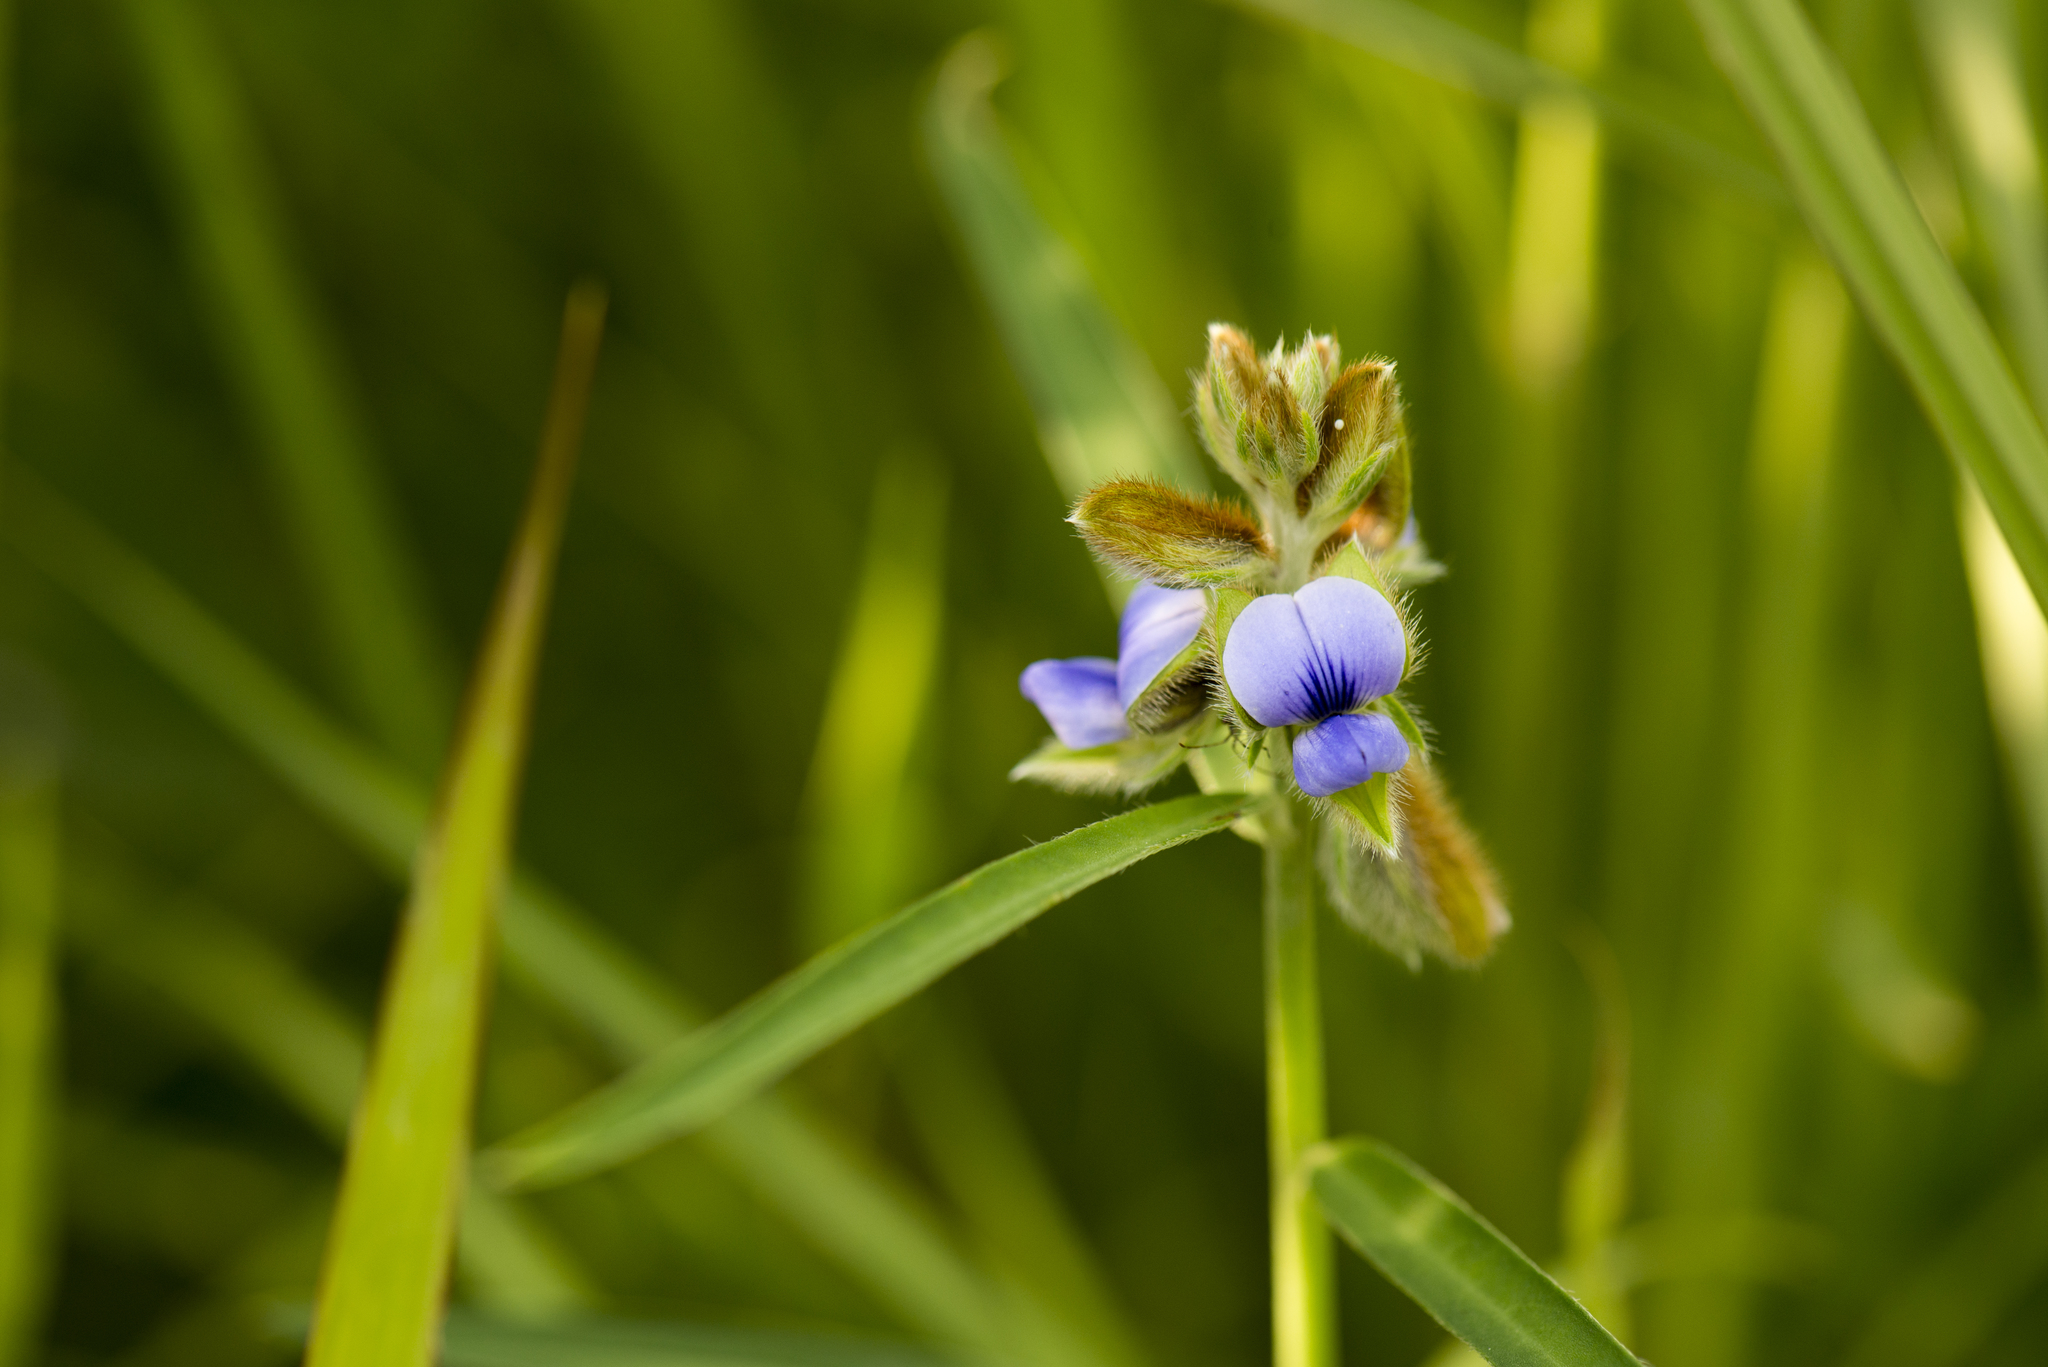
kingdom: Plantae
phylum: Tracheophyta
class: Magnoliopsida
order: Fabales
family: Fabaceae
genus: Crotalaria
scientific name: Crotalaria sessiliflora
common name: Rattlebox
